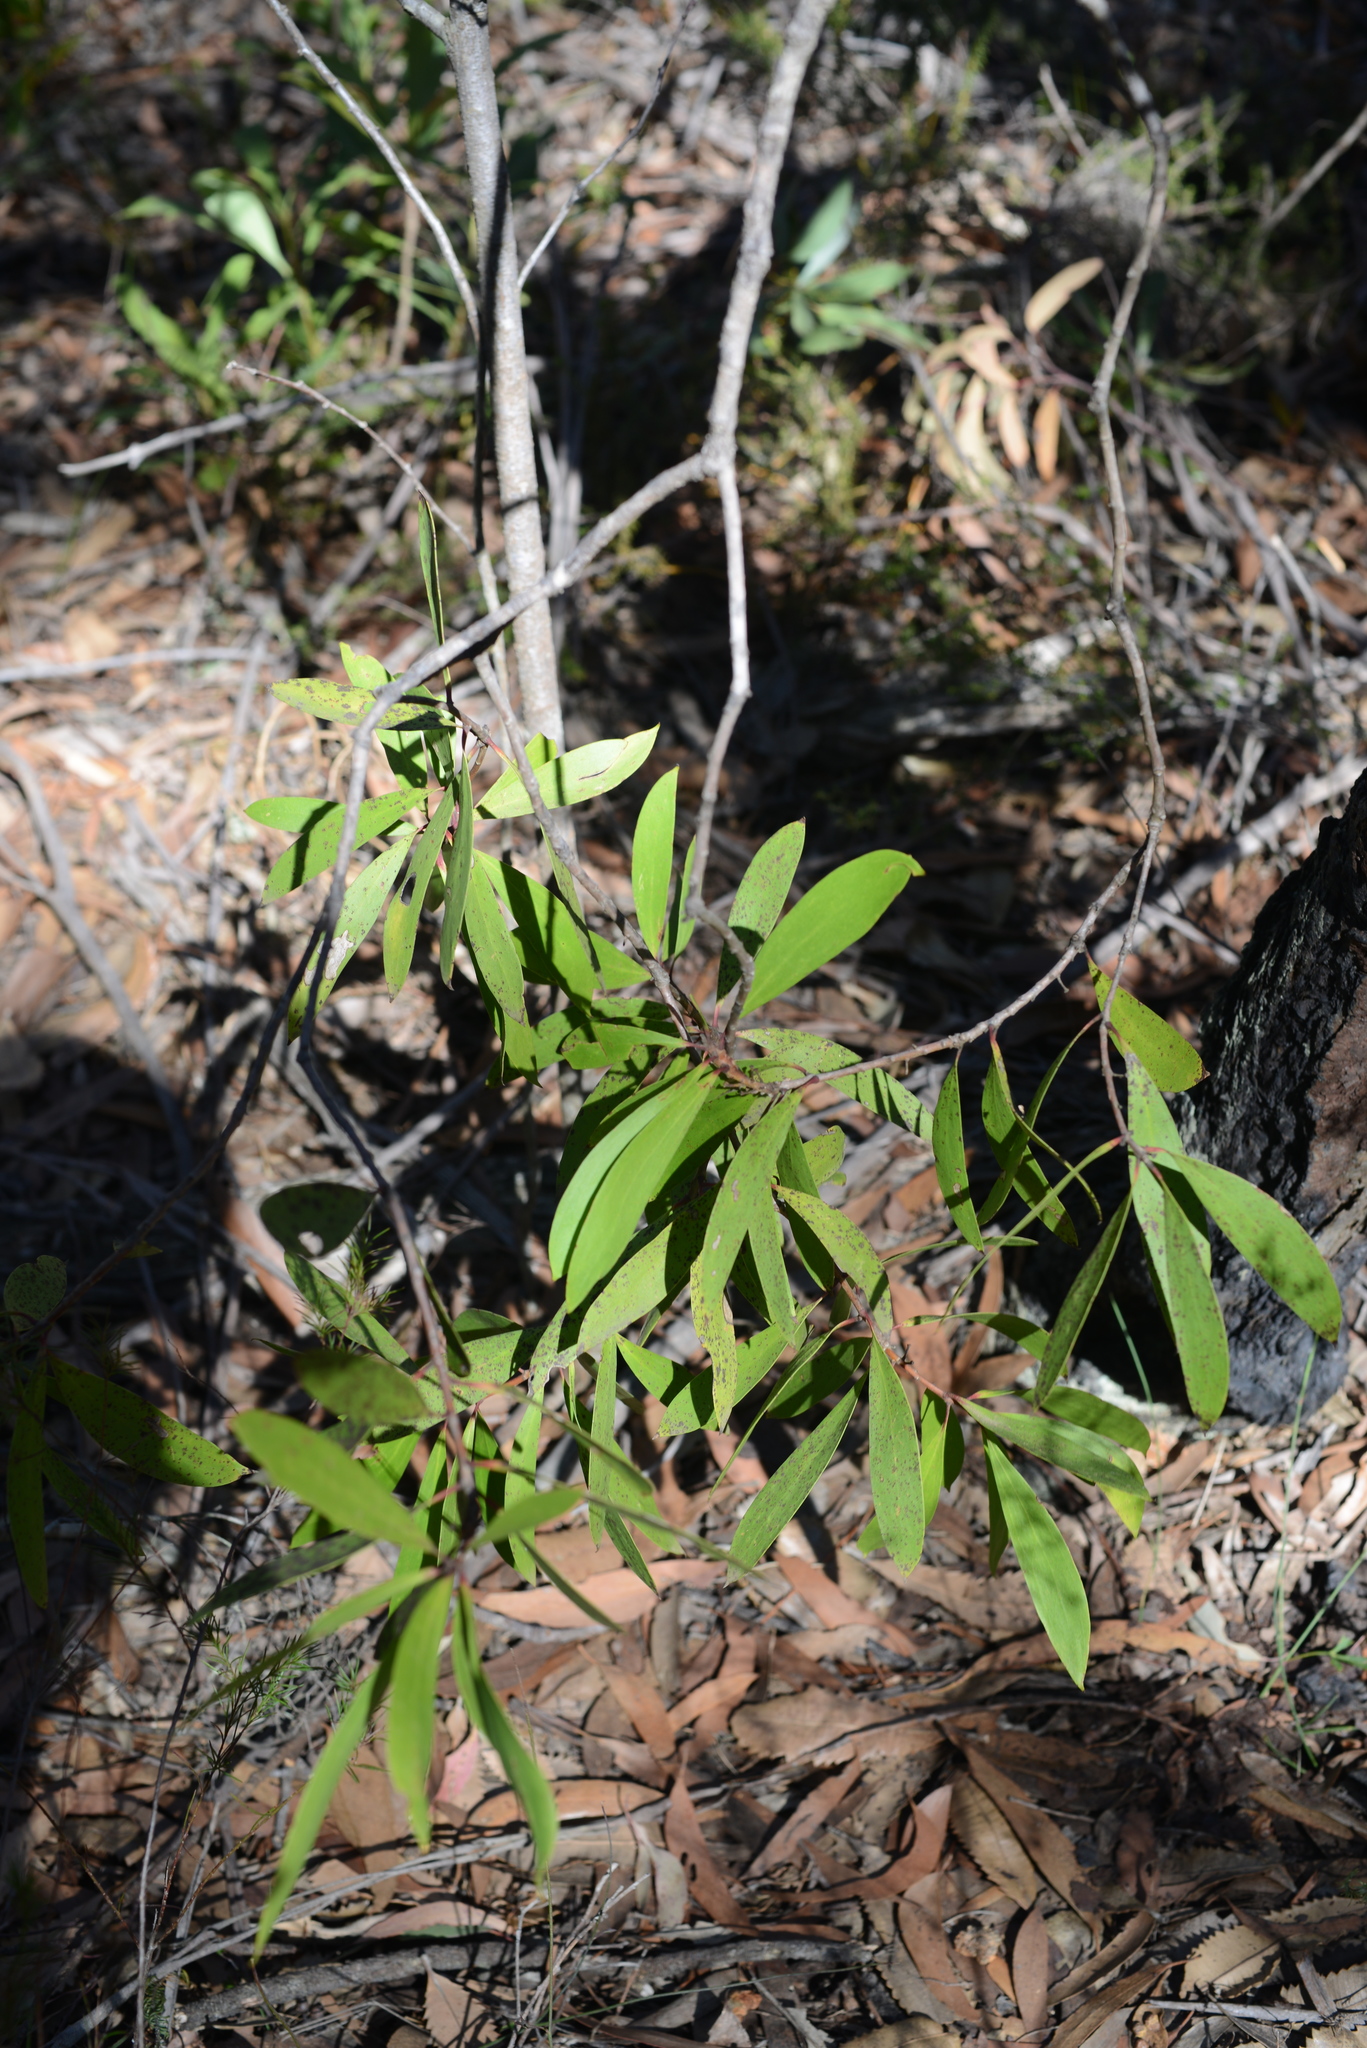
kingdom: Plantae
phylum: Tracheophyta
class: Magnoliopsida
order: Proteales
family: Proteaceae
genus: Persoonia
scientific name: Persoonia levis
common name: Smooth geebung
